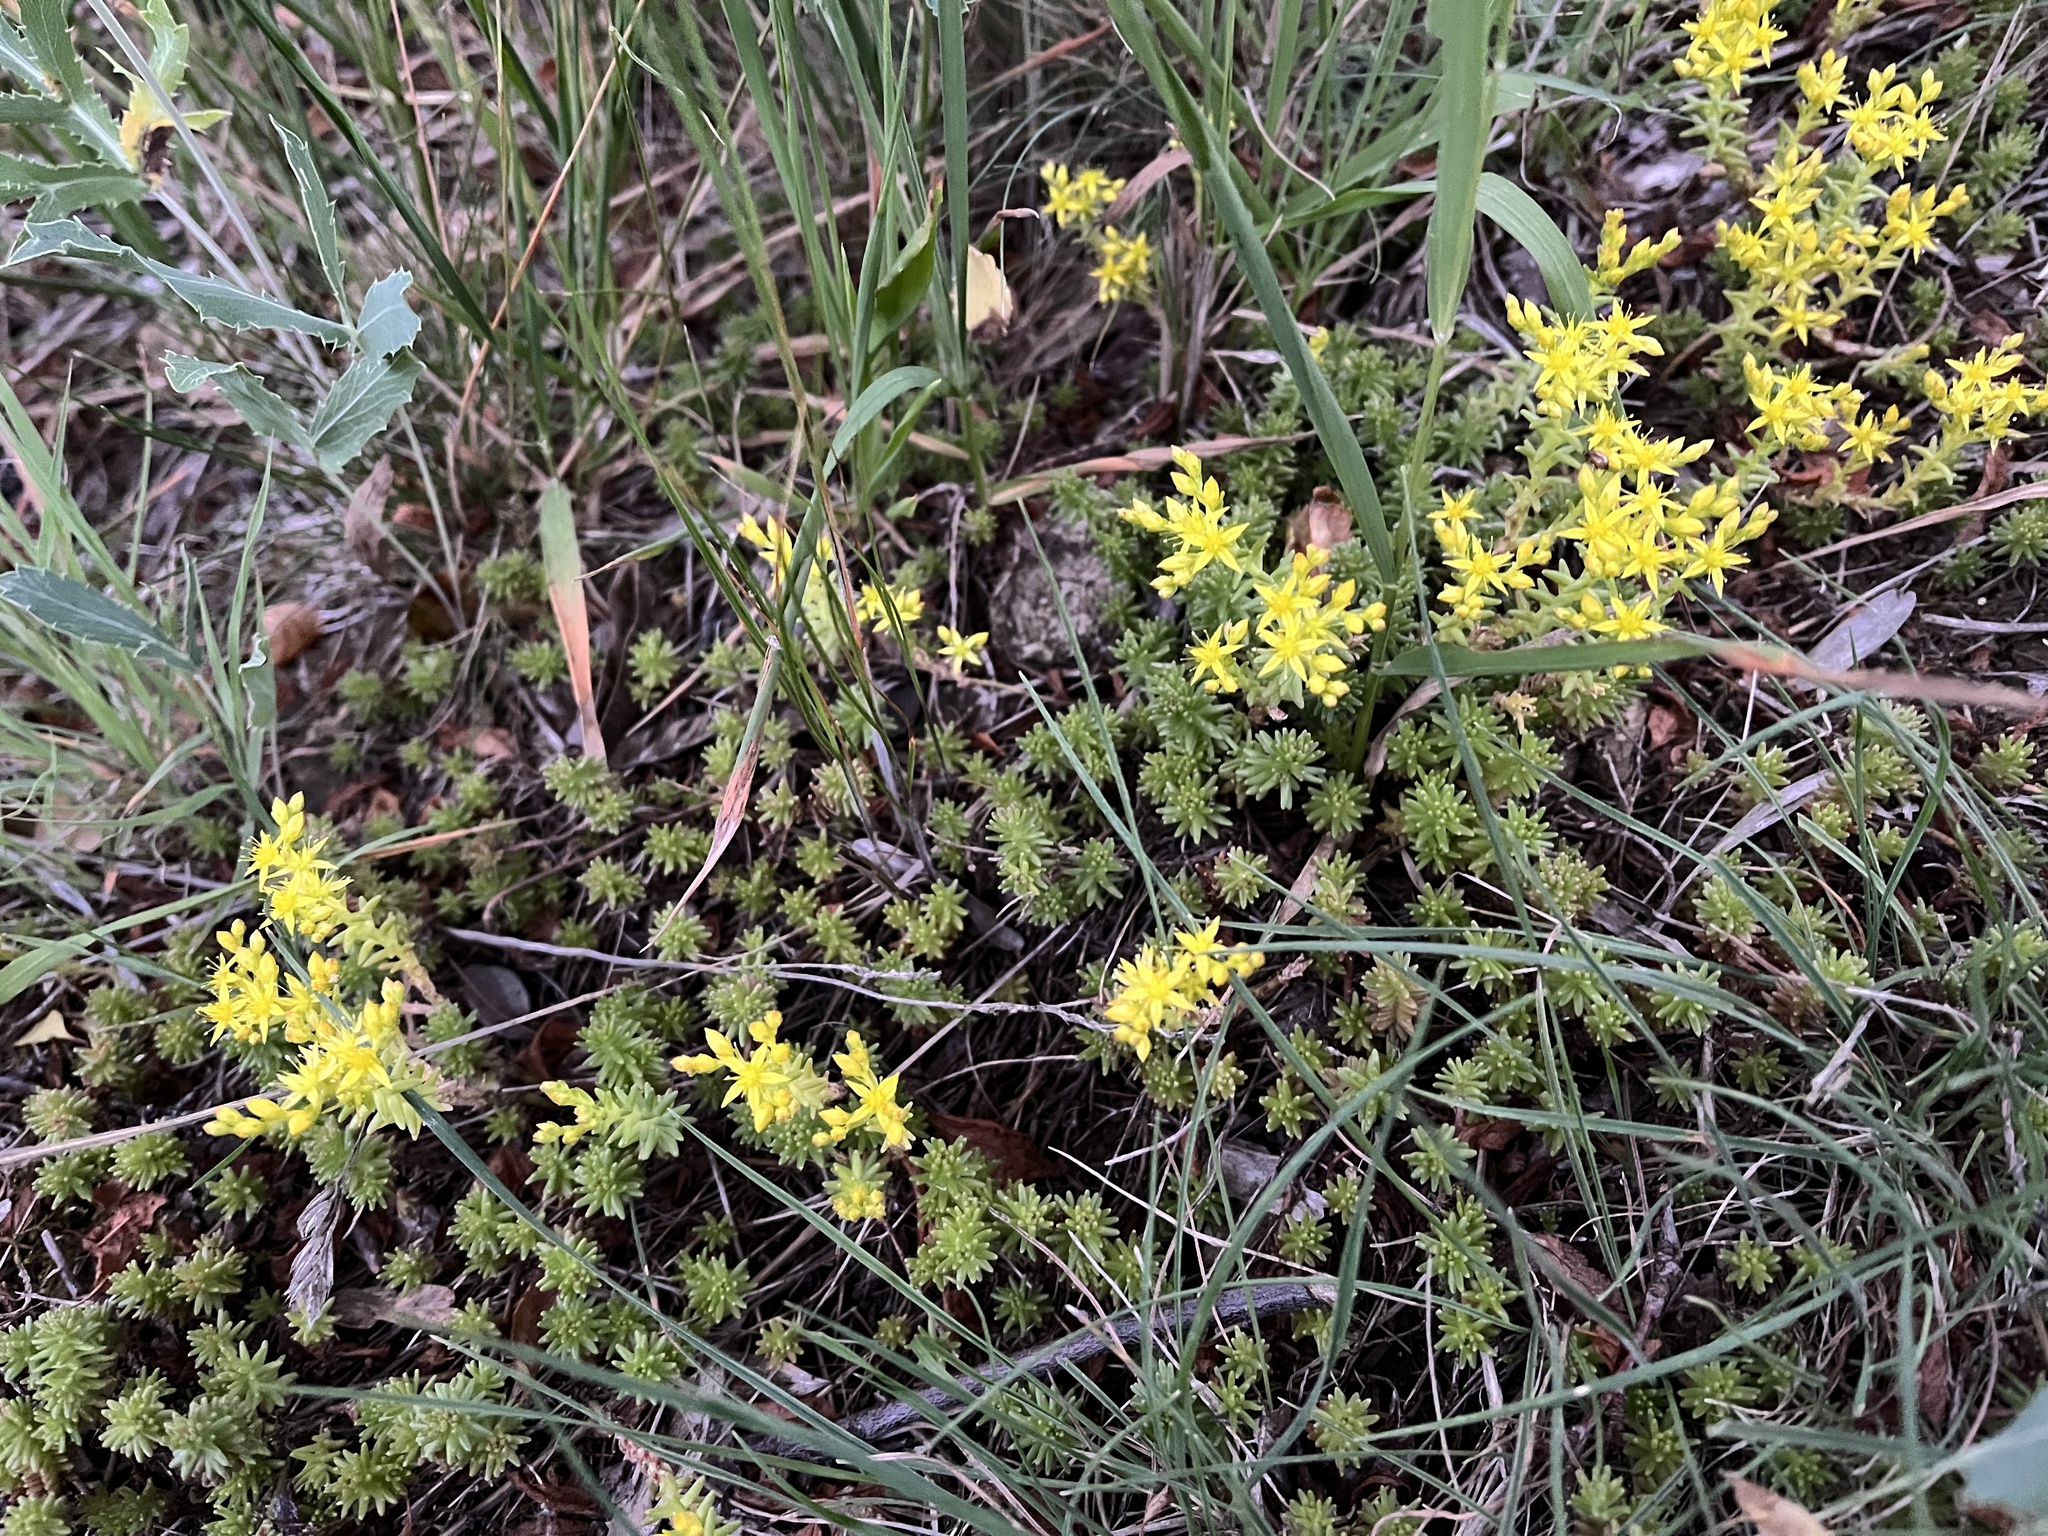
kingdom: Plantae
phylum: Tracheophyta
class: Magnoliopsida
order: Saxifragales
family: Crassulaceae
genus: Sedum
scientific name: Sedum sexangulare
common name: Tasteless stonecrop
